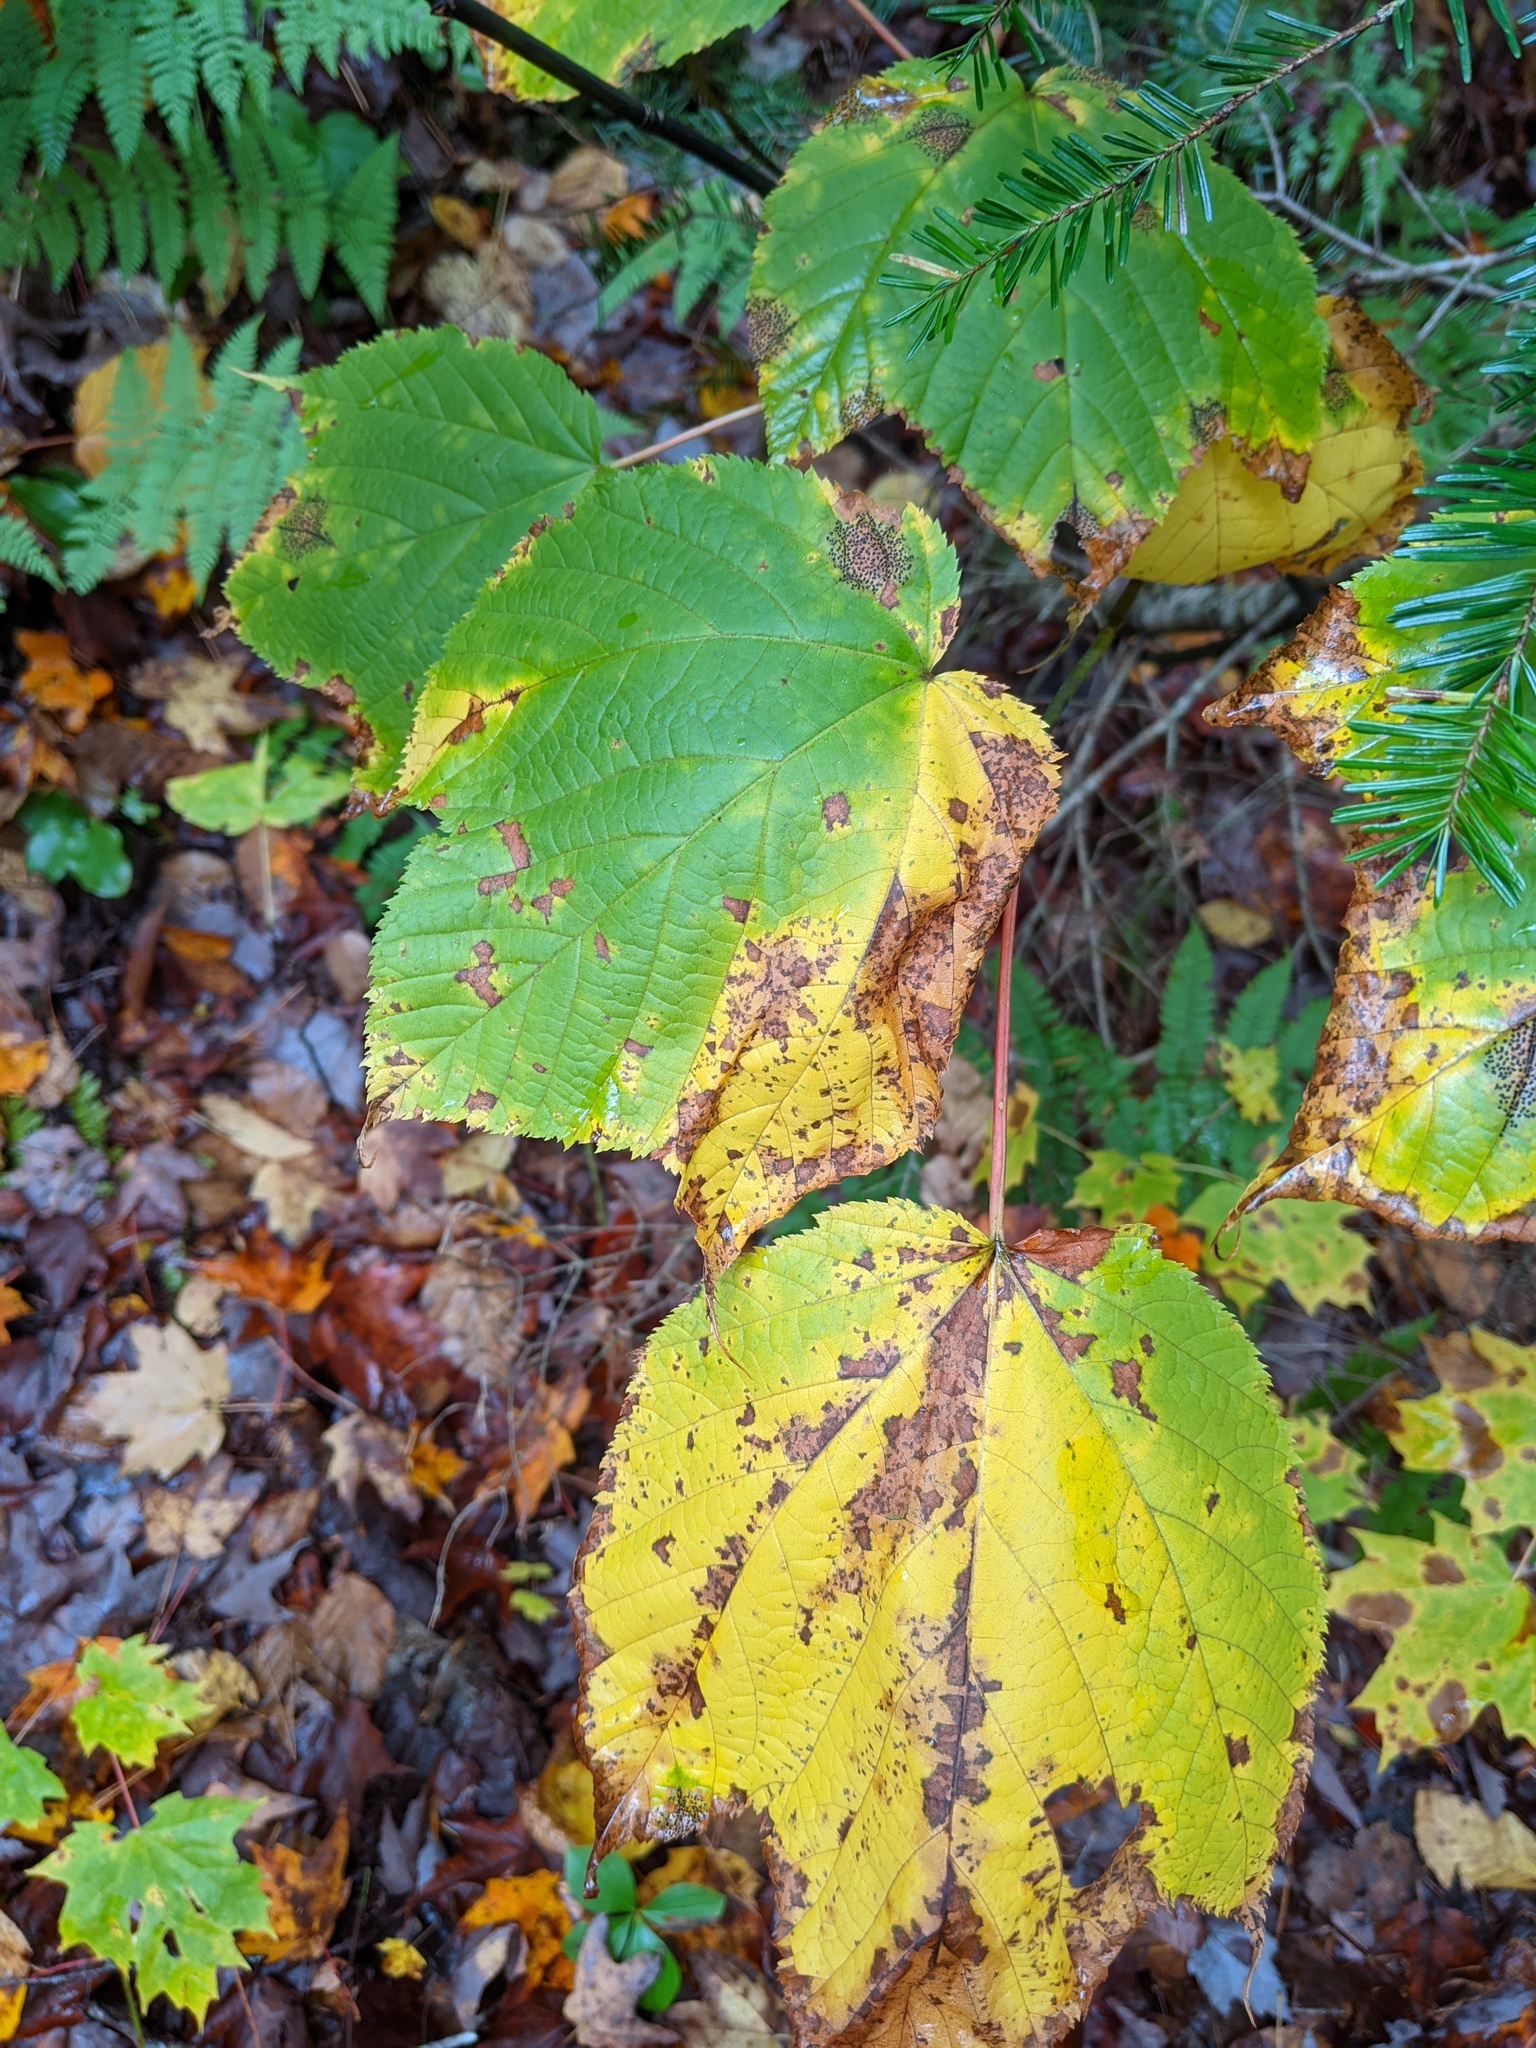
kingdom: Plantae
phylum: Tracheophyta
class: Magnoliopsida
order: Sapindales
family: Sapindaceae
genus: Acer
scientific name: Acer pensylvanicum
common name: Moosewood
